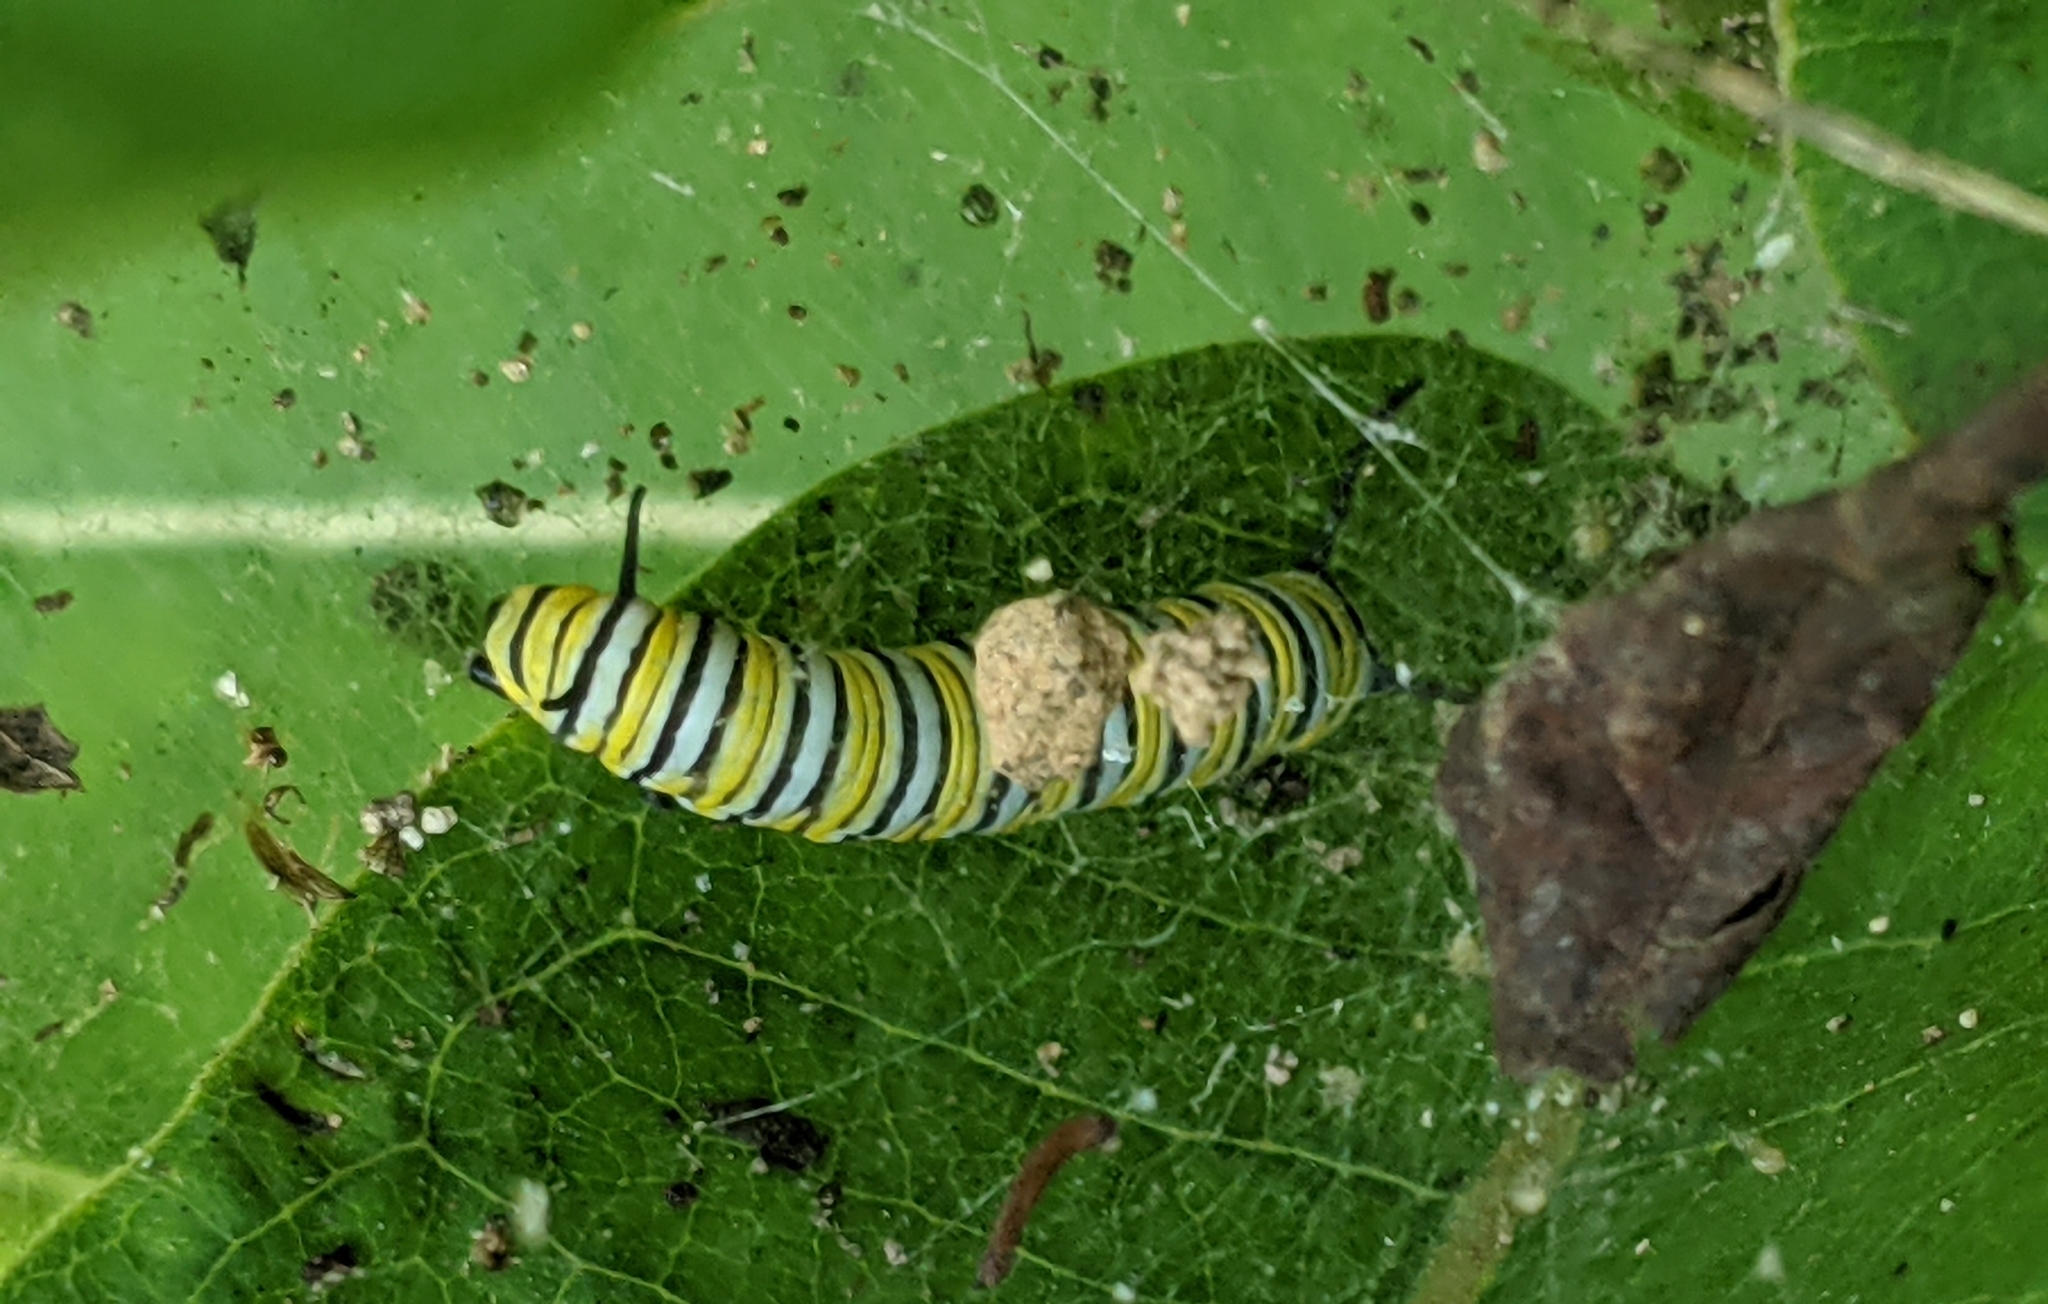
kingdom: Animalia
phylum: Arthropoda
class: Insecta
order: Lepidoptera
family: Nymphalidae
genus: Danaus
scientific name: Danaus plexippus
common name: Monarch
